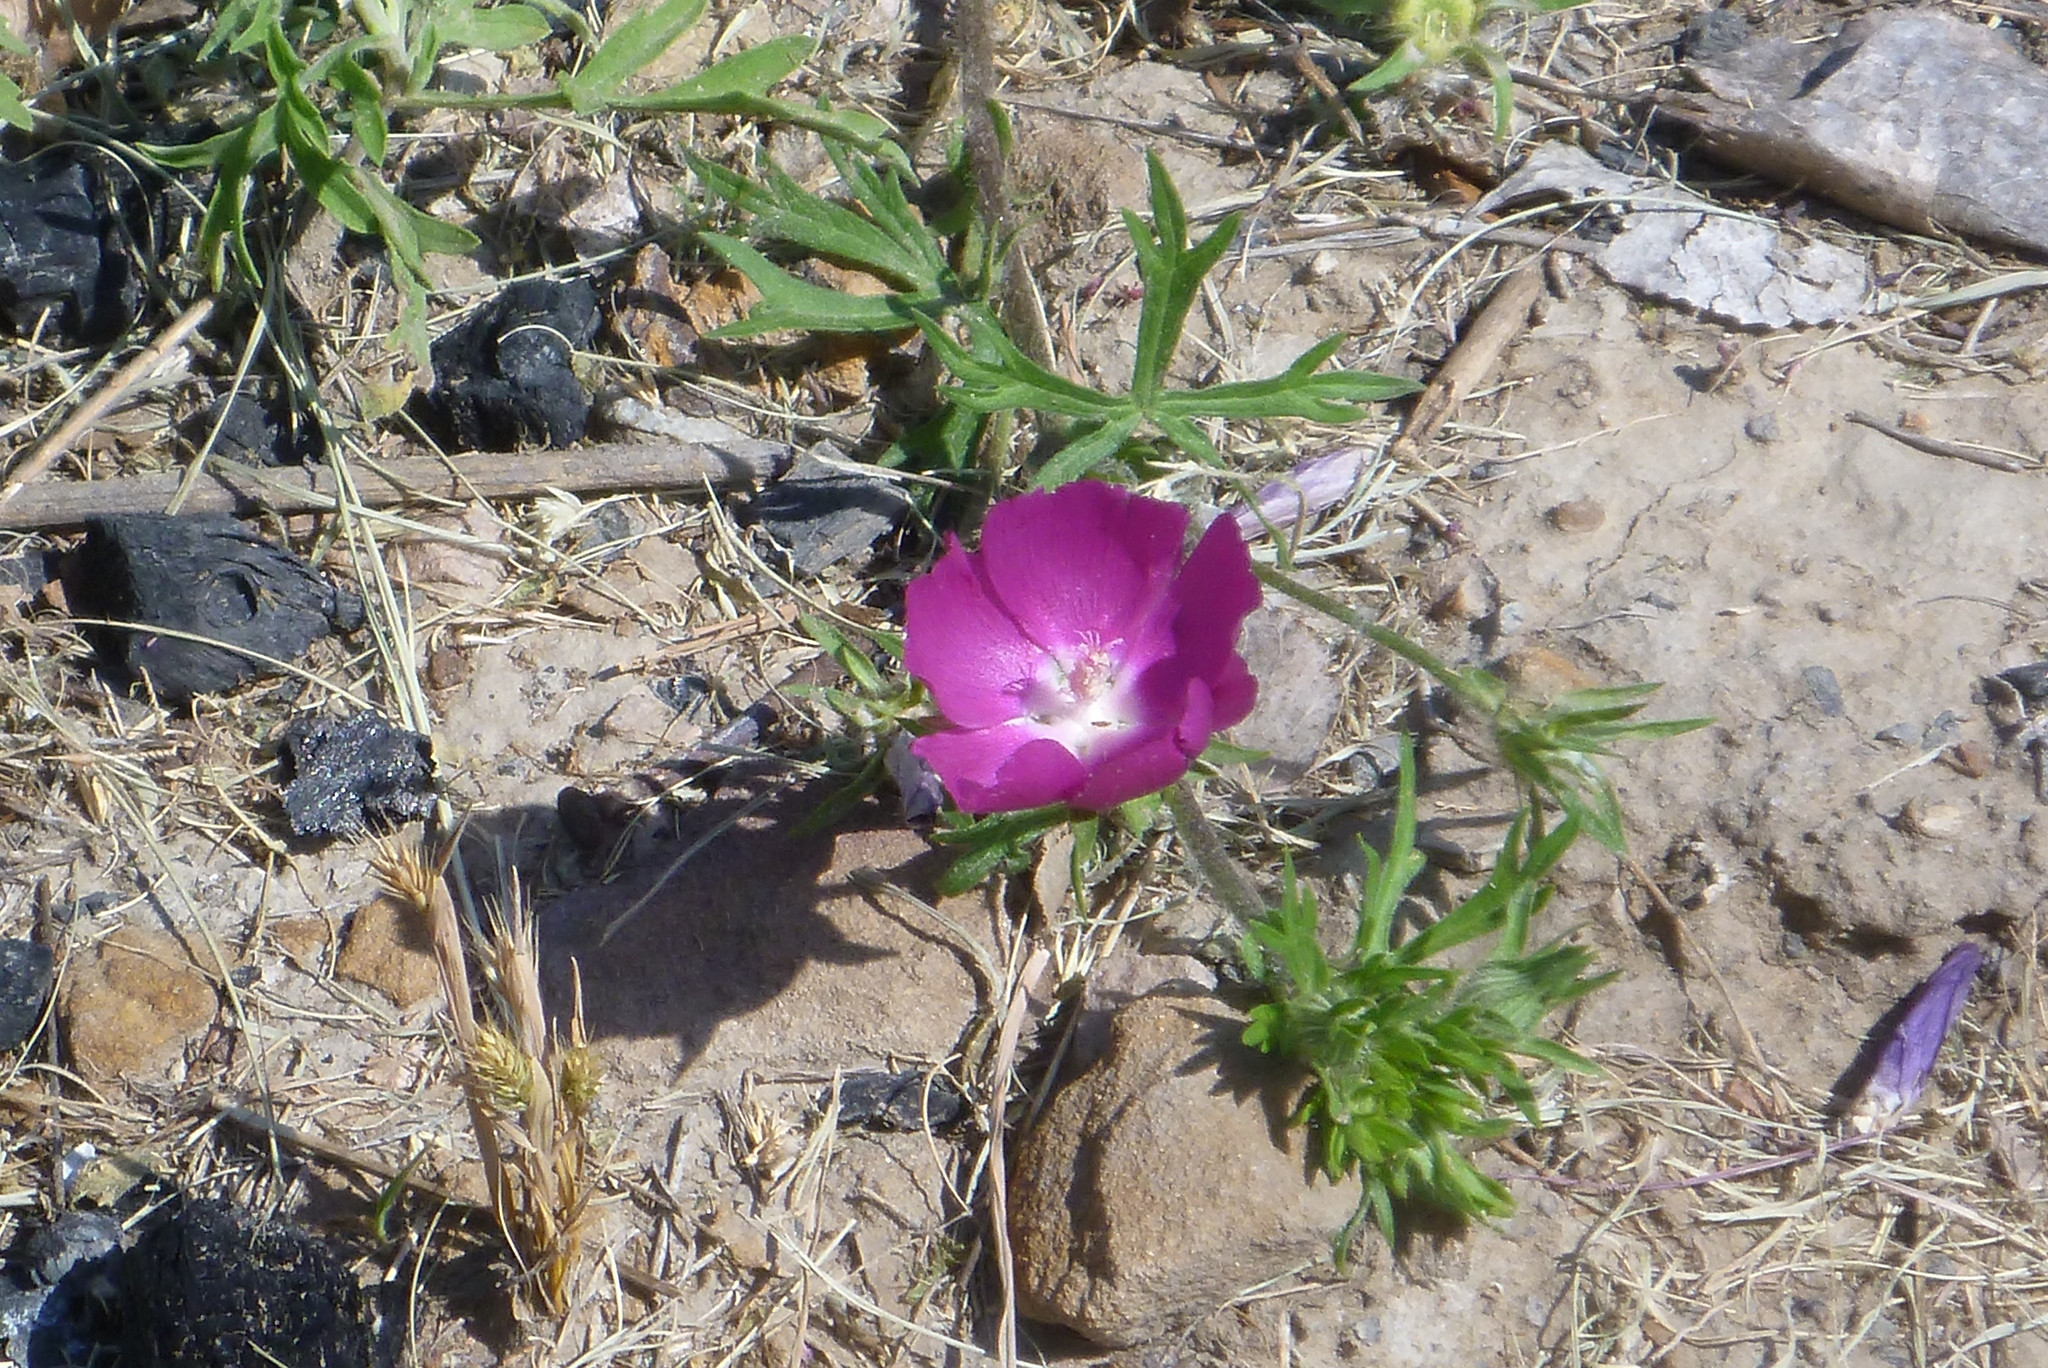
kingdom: Plantae
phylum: Tracheophyta
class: Magnoliopsida
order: Malvales
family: Malvaceae
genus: Callirhoe
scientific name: Callirhoe involucrata
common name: Purple poppy-mallow
